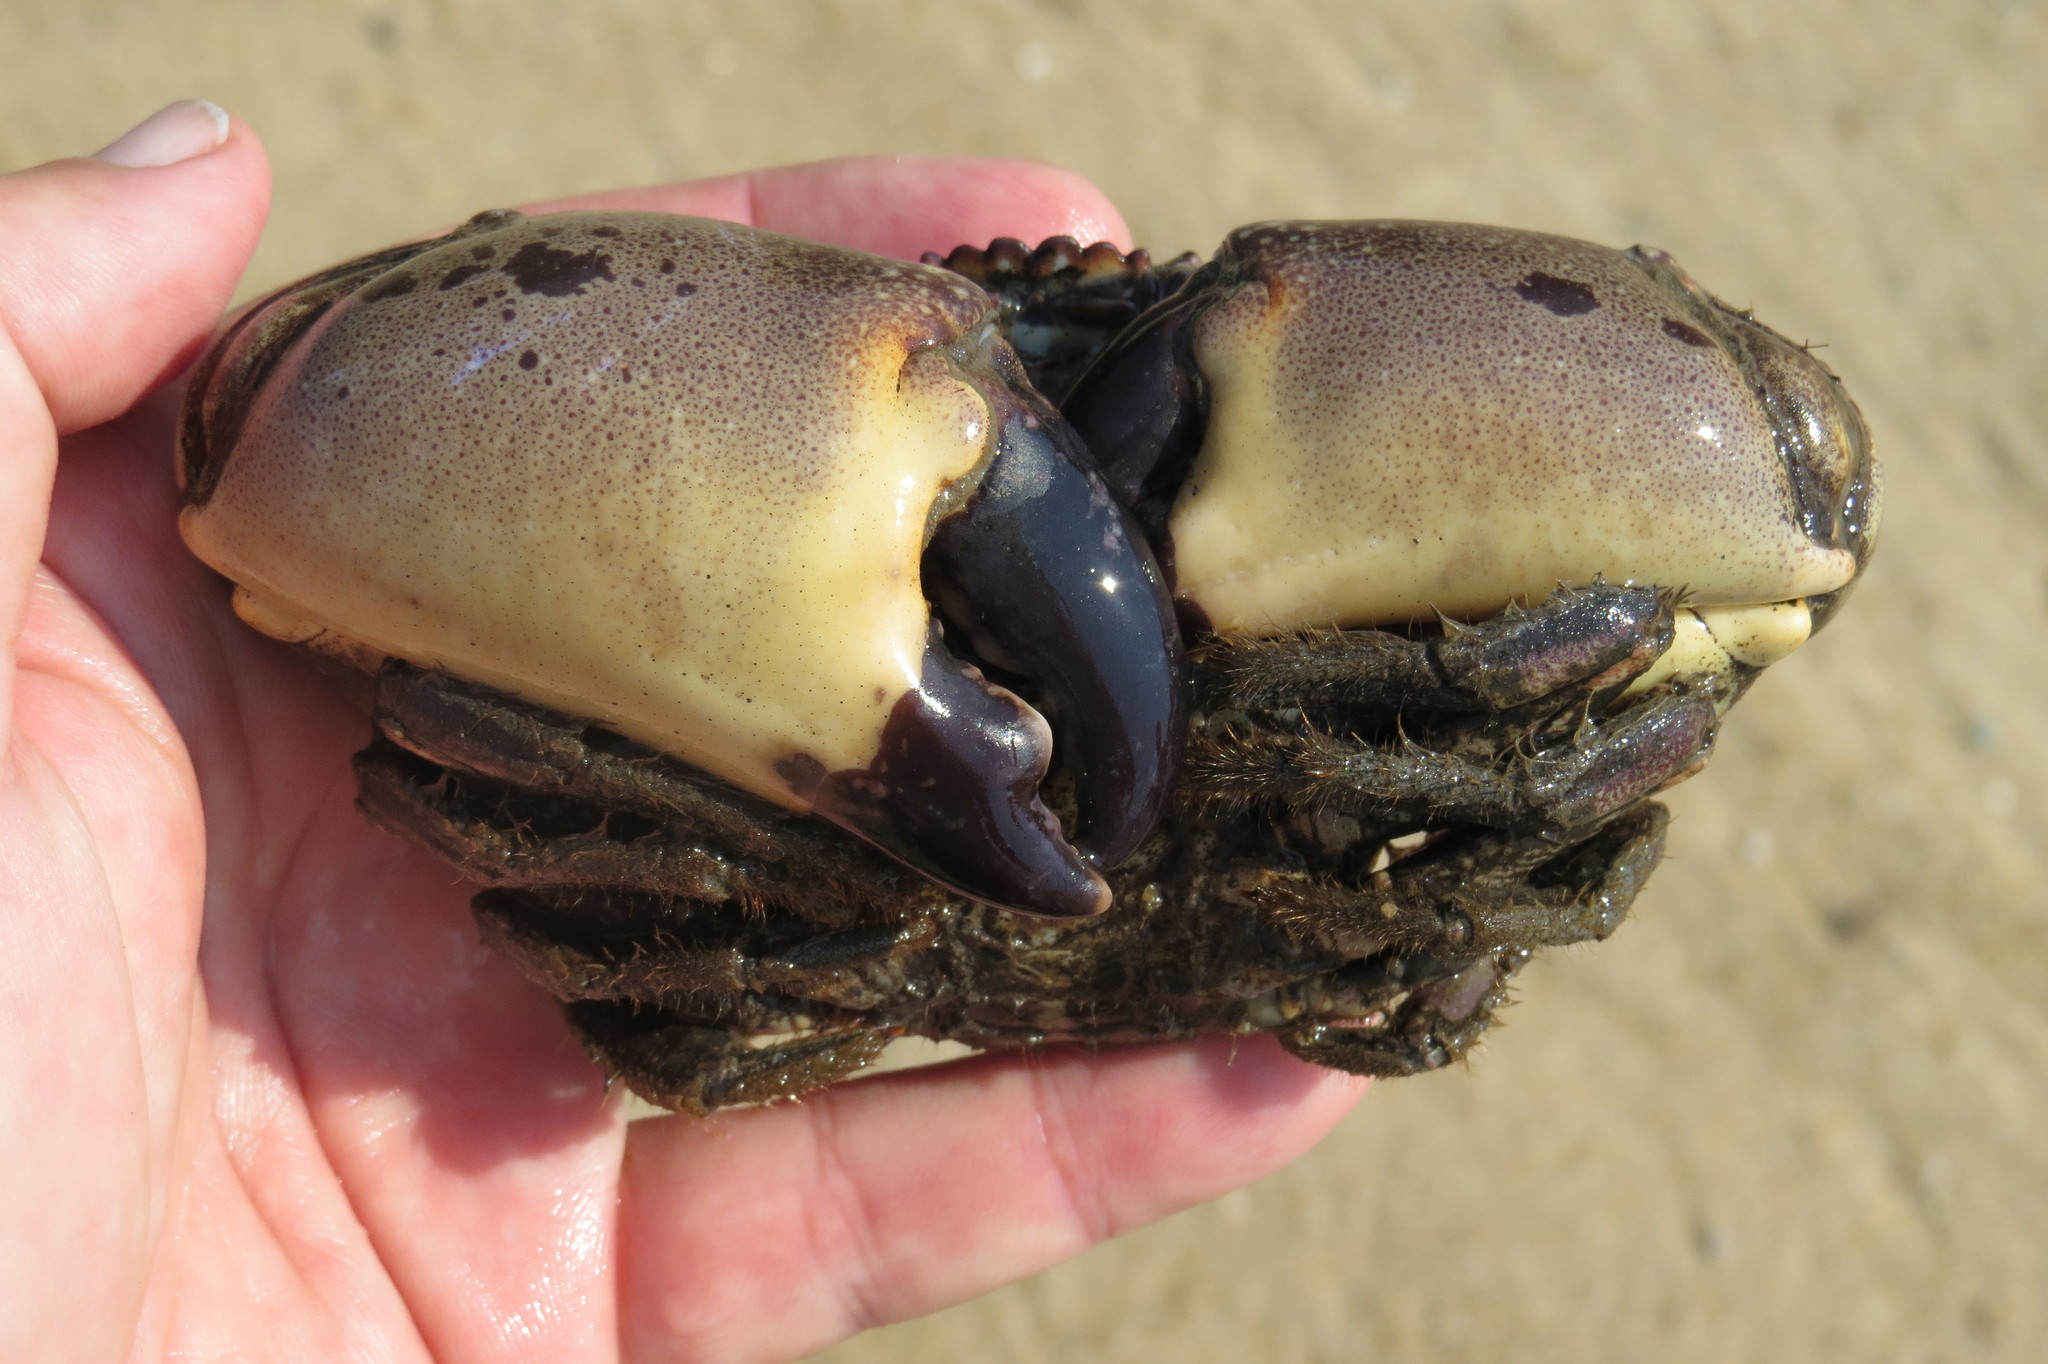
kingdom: Animalia
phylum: Arthropoda
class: Malacostraca
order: Decapoda
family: Menippidae
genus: Myomenippe
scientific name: Myomenippe fornasinii
